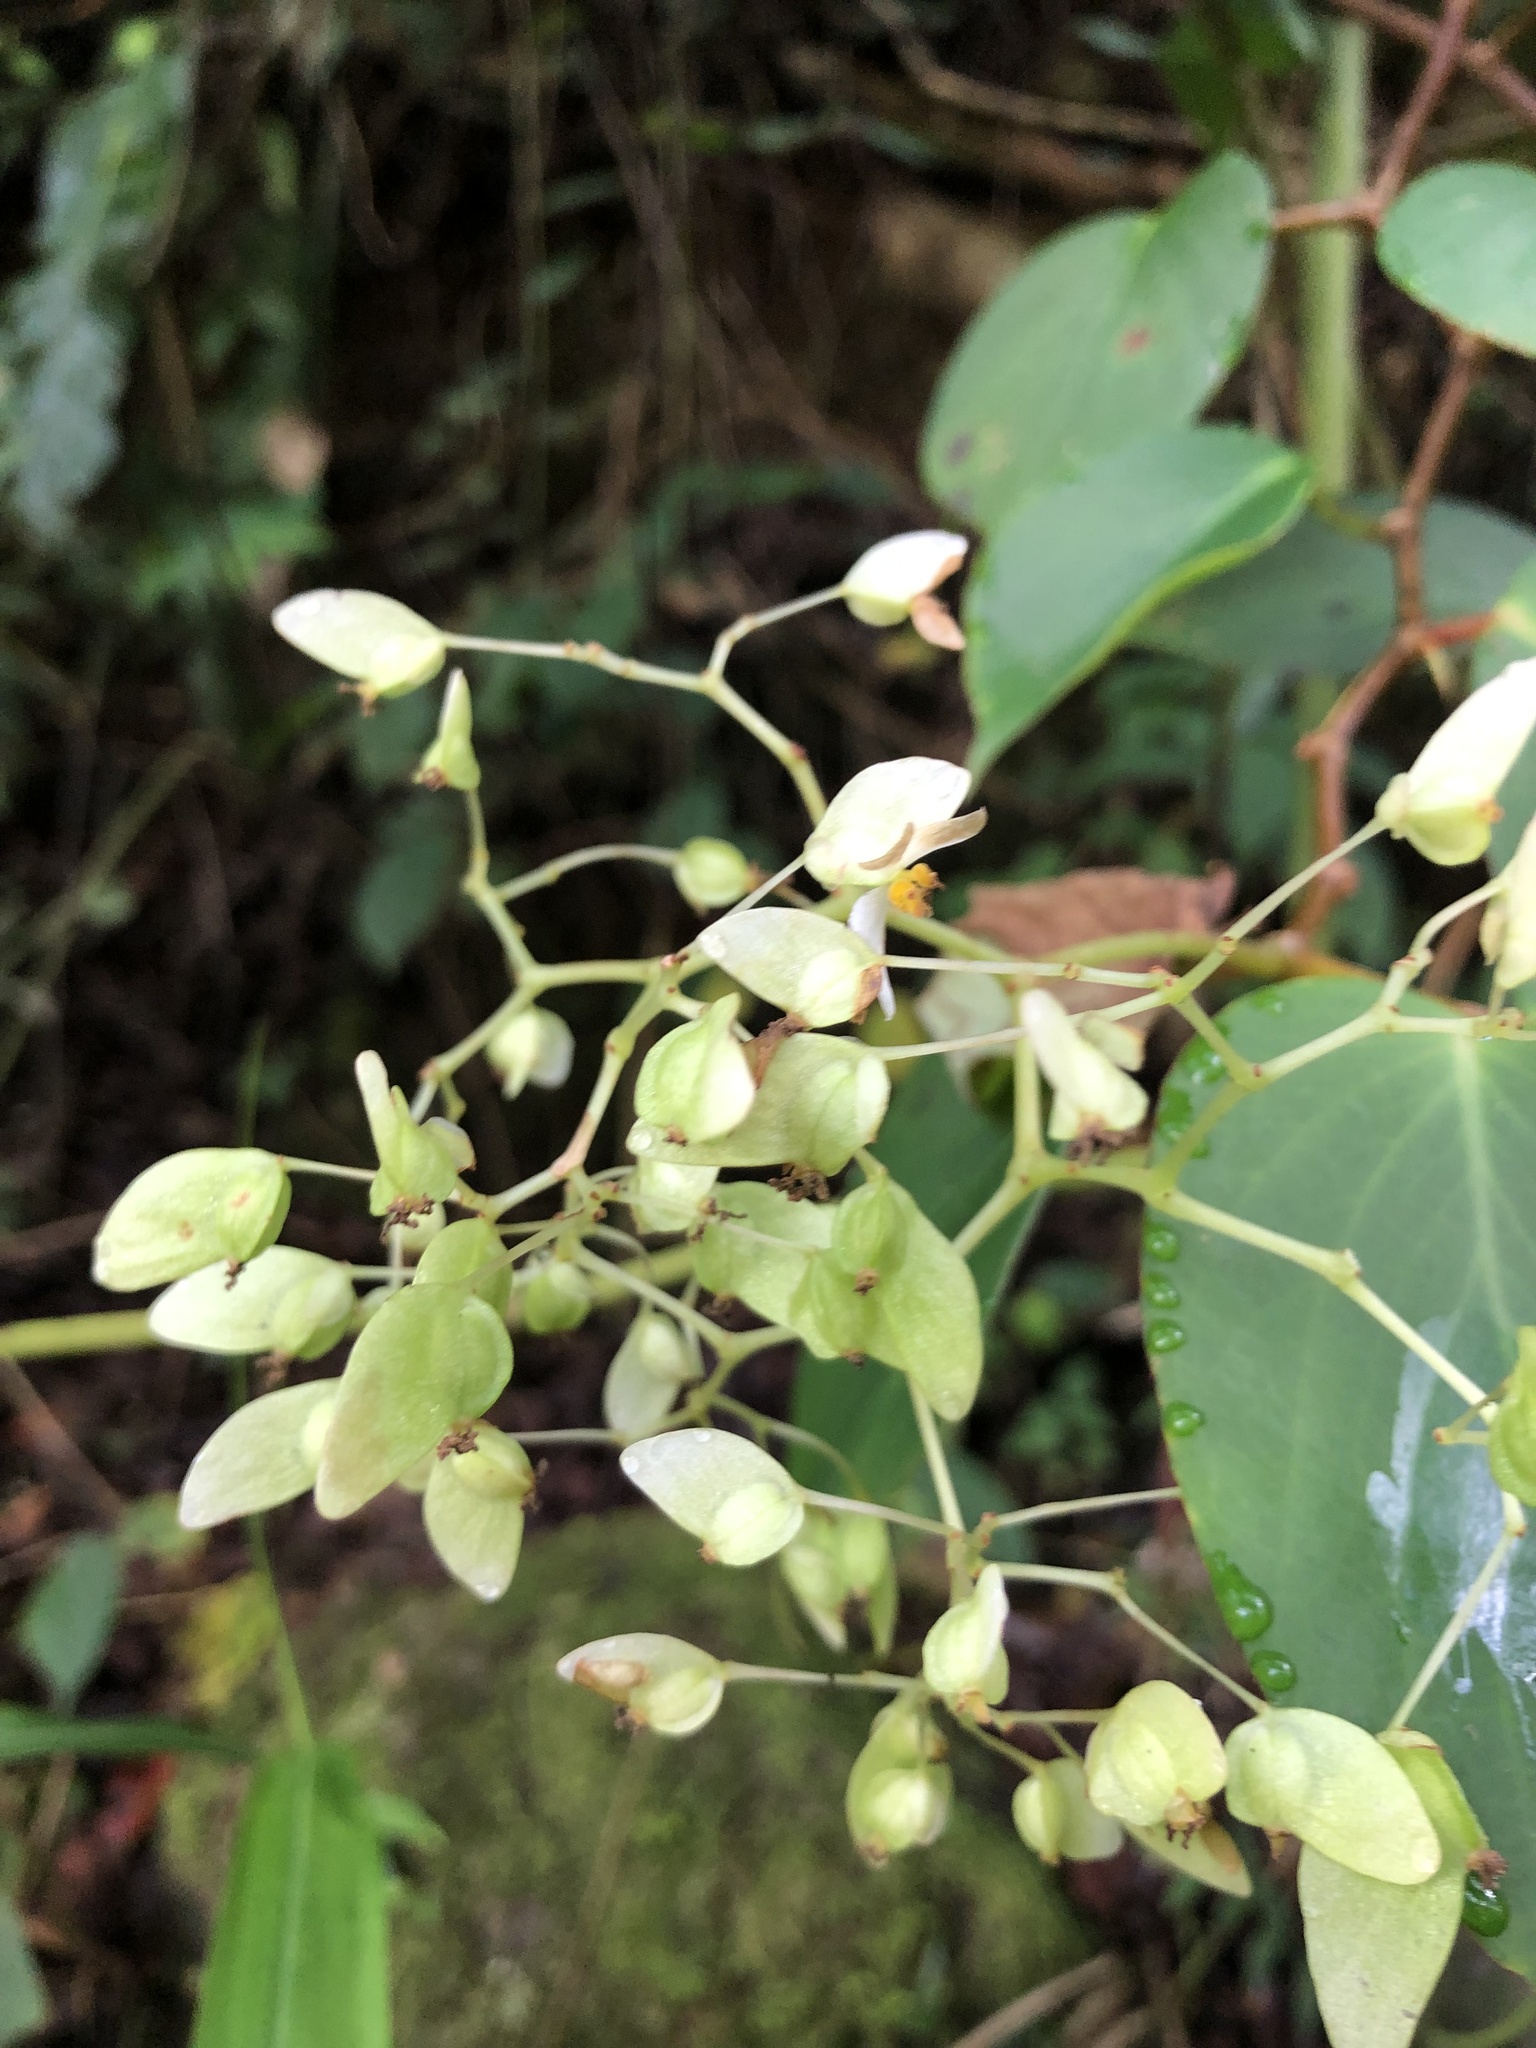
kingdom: Plantae
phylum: Tracheophyta
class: Magnoliopsida
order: Cucurbitales
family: Begoniaceae
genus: Begonia
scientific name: Begonia holtonis
